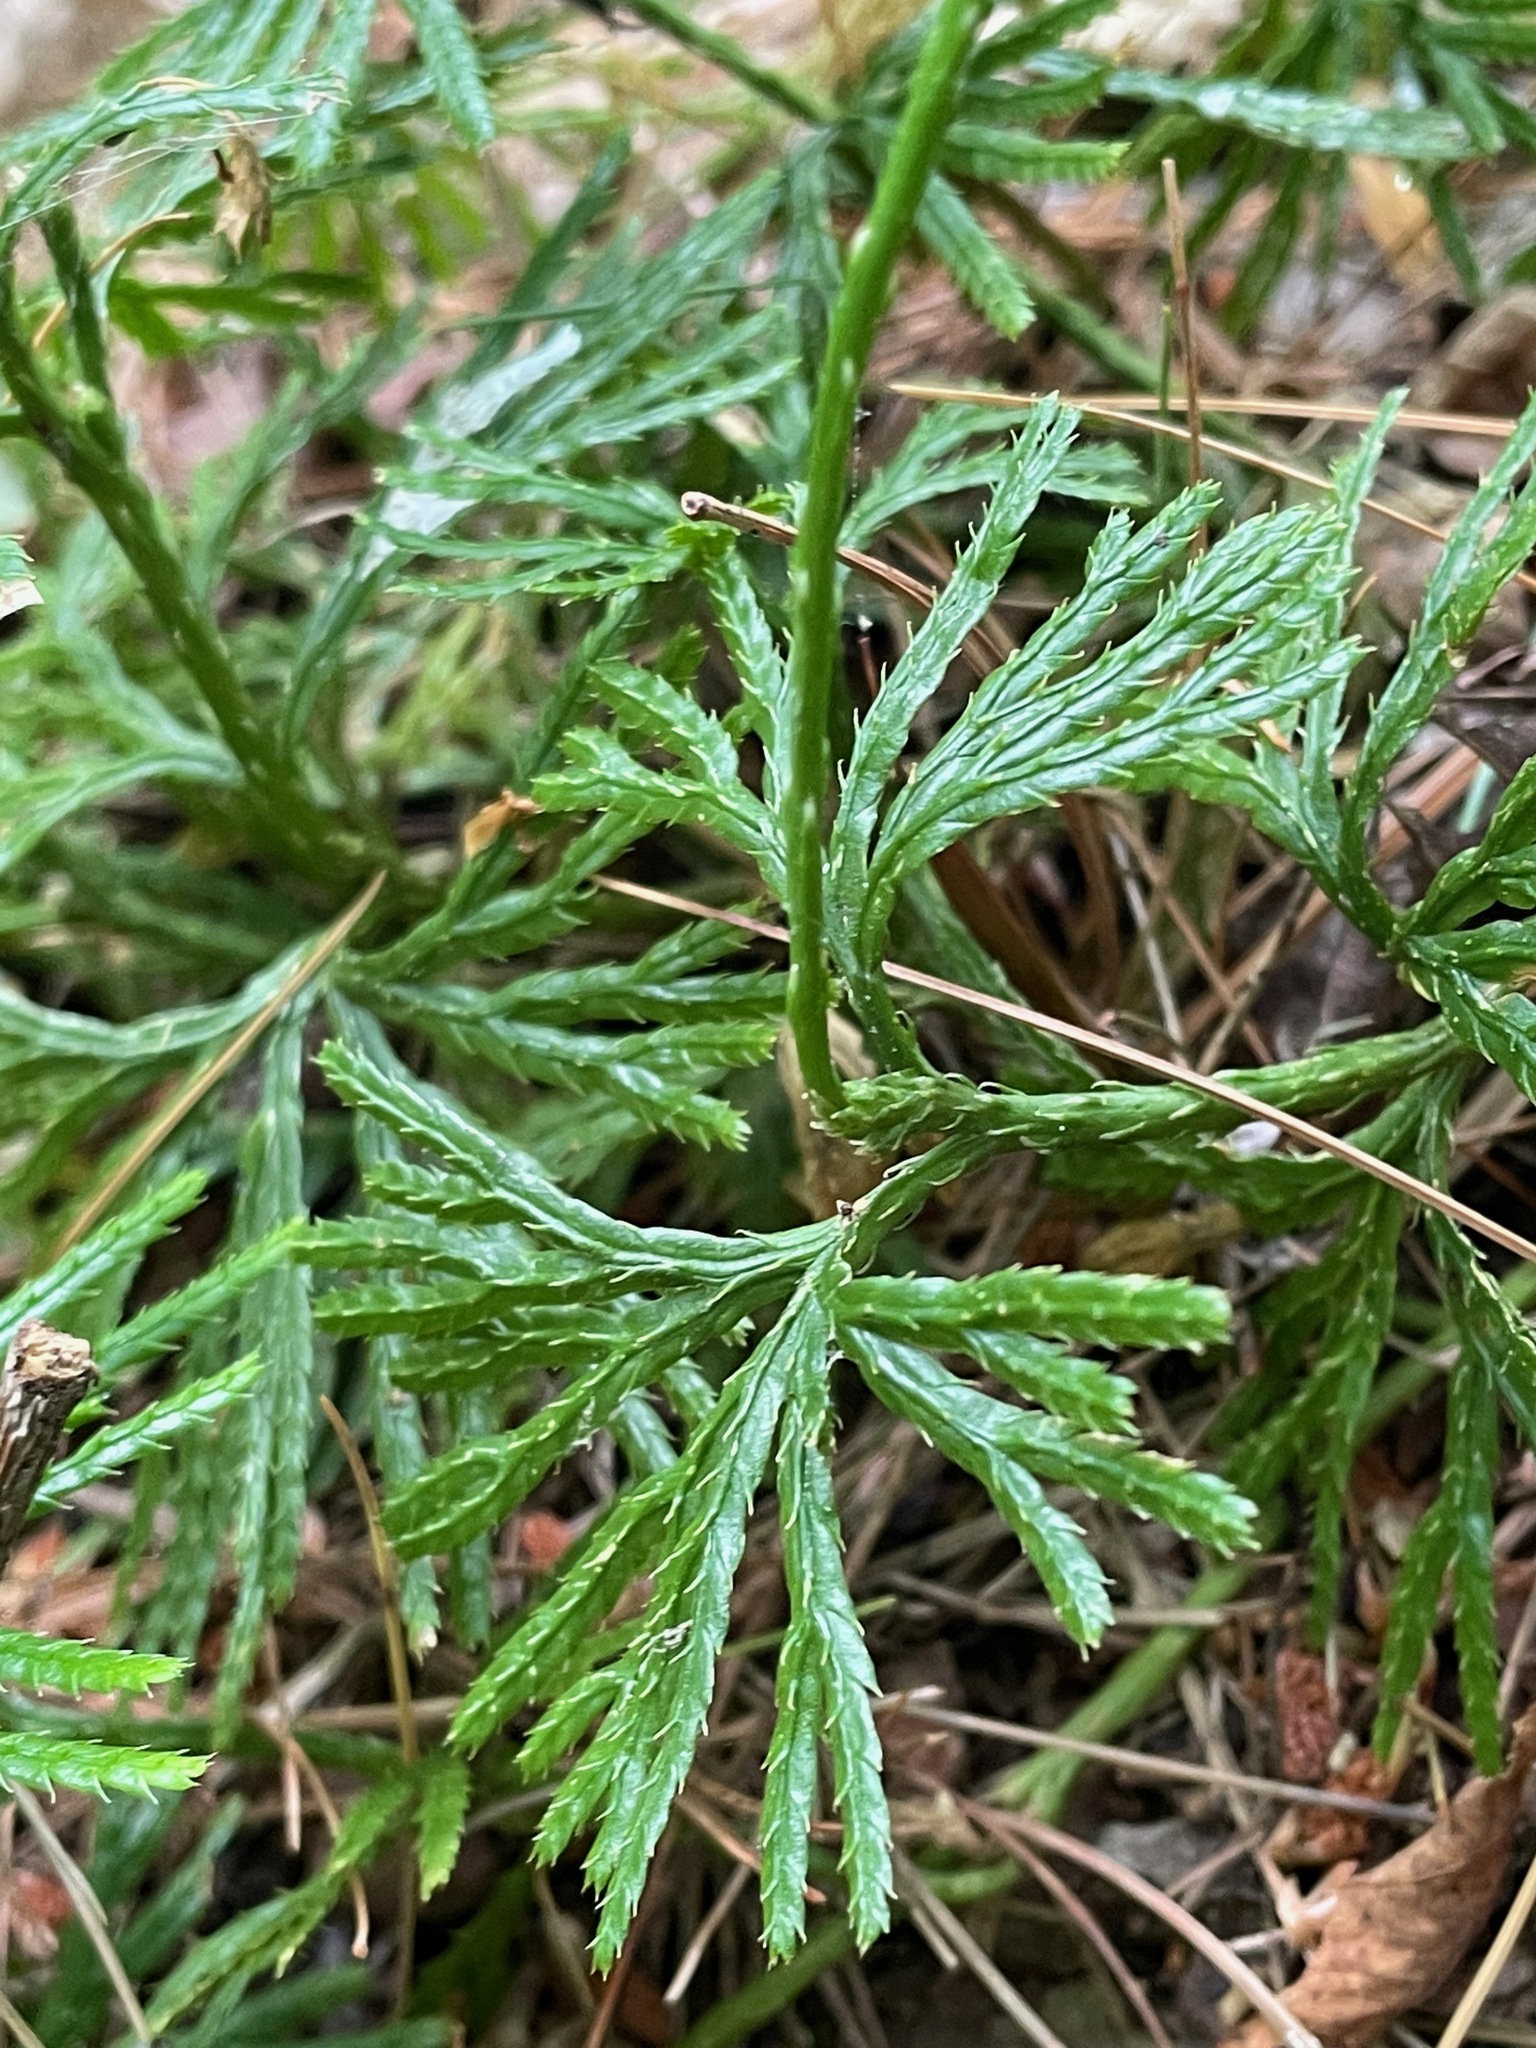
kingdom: Plantae
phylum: Tracheophyta
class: Lycopodiopsida
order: Lycopodiales
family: Lycopodiaceae
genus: Diphasiastrum
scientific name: Diphasiastrum digitatum
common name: Southern running-pine
